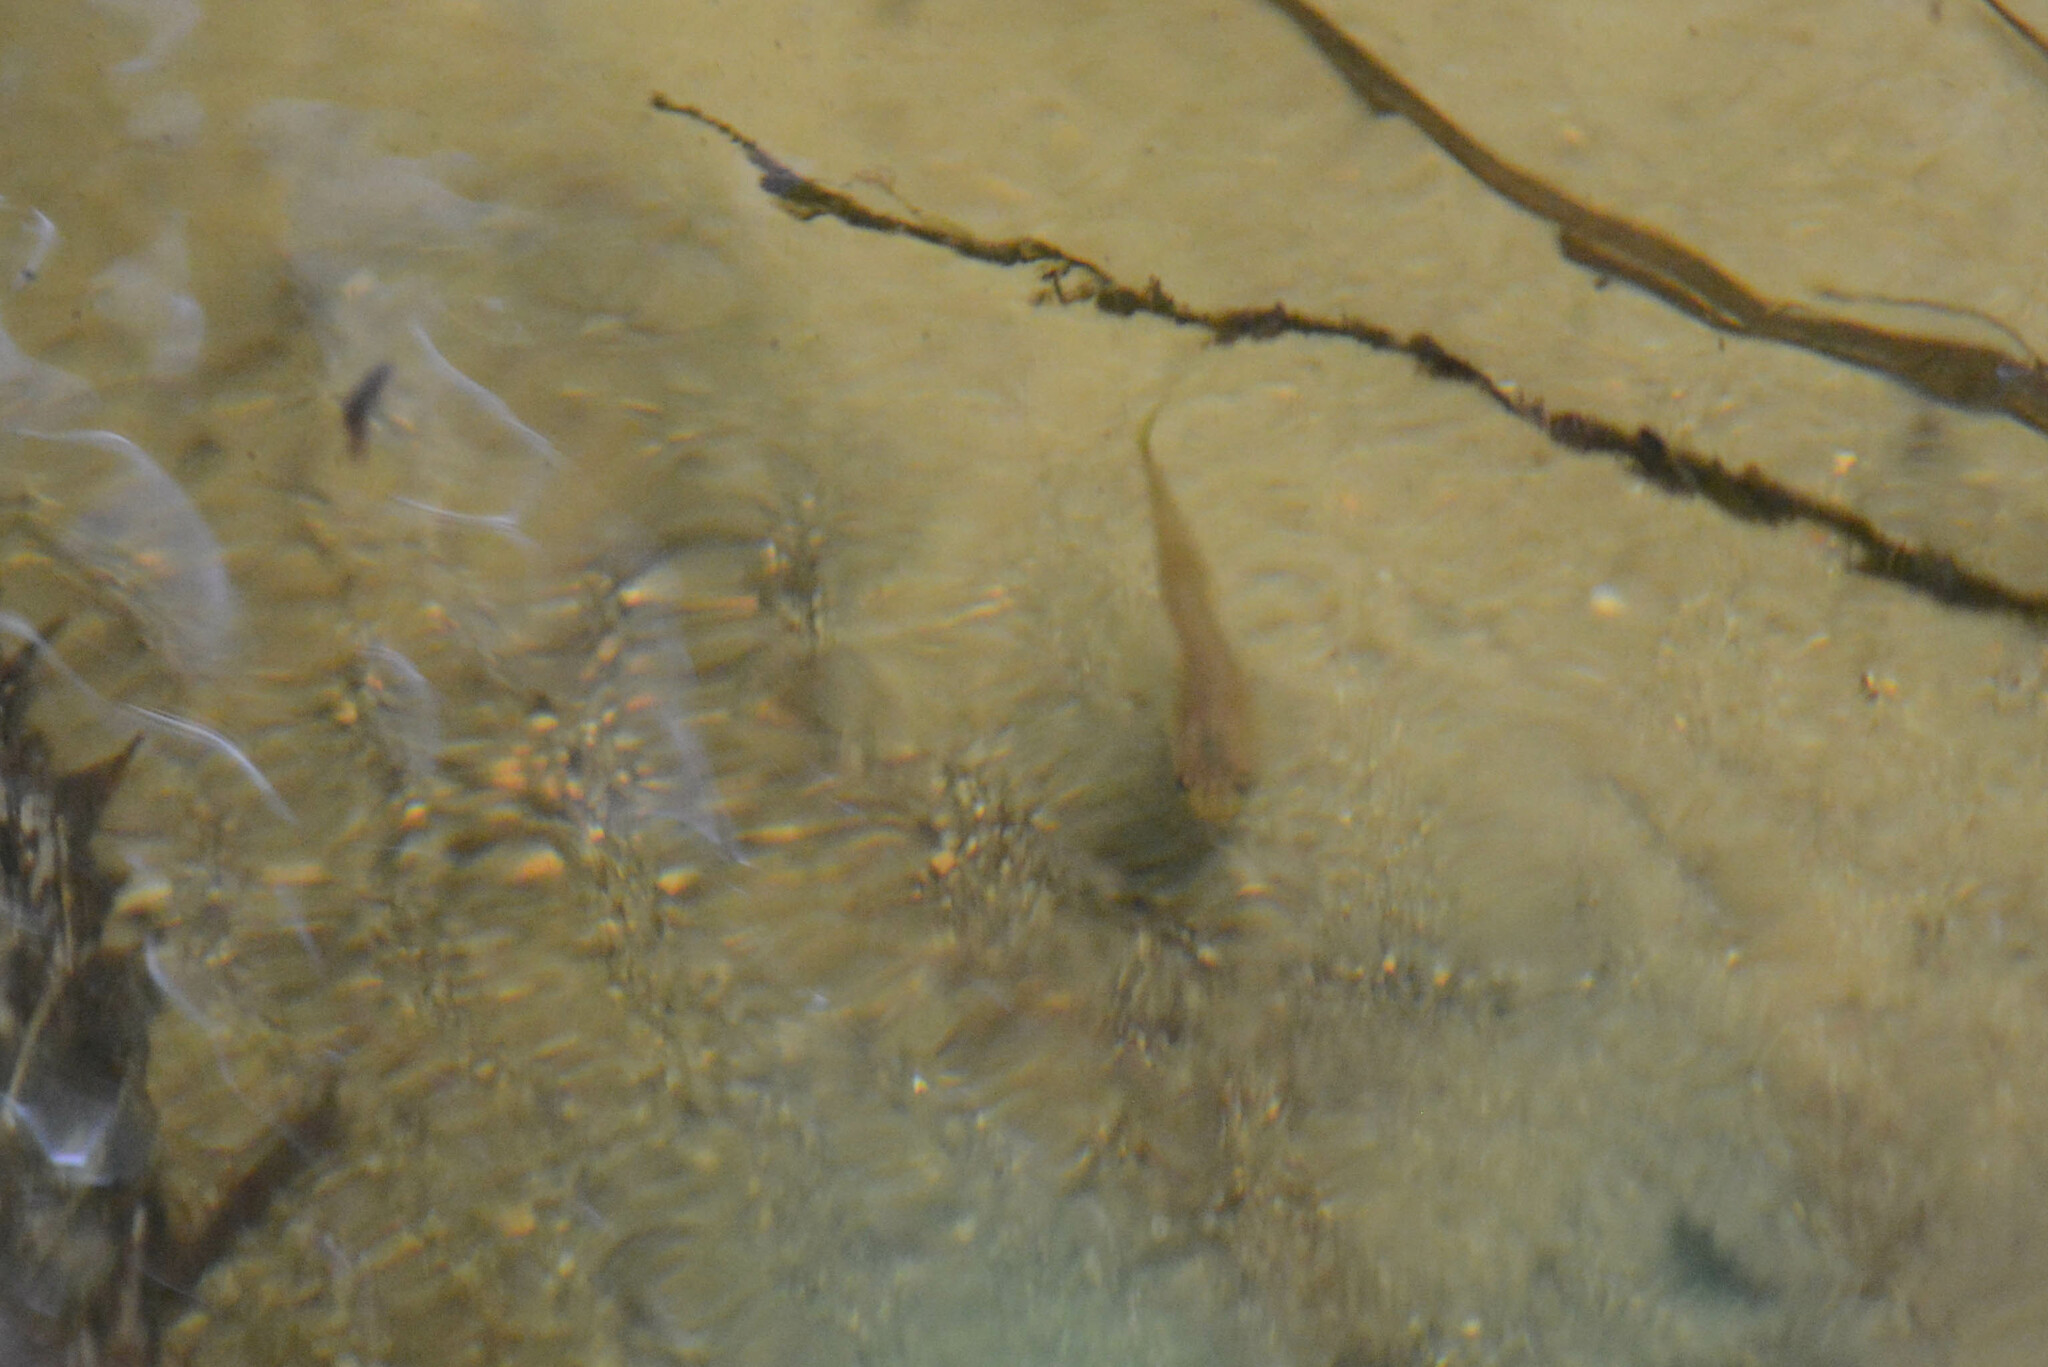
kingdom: Animalia
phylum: Chordata
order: Siluriformes
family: Trichomycteridae
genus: Trichogenes
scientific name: Trichogenes claviger
